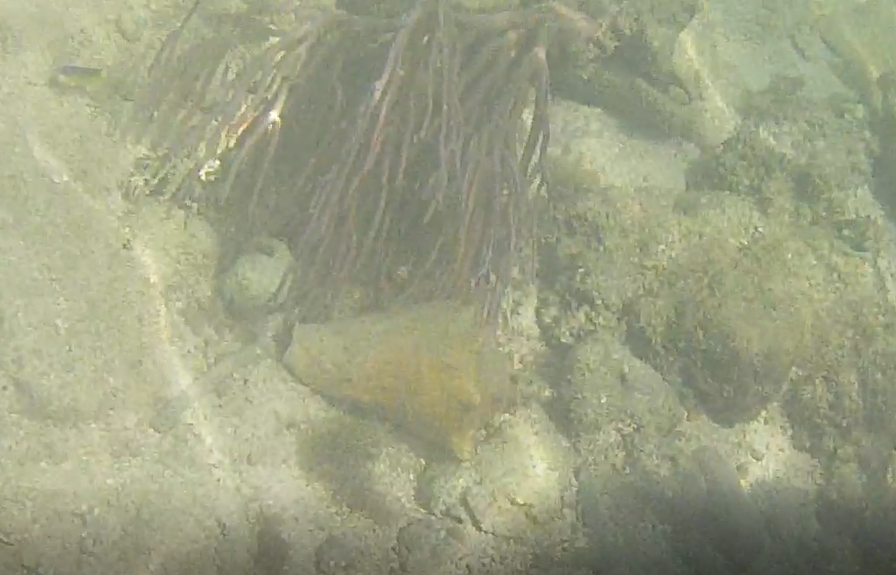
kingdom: Animalia
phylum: Mollusca
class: Gastropoda
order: Littorinimorpha
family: Strombidae
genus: Aliger
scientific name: Aliger gigas
